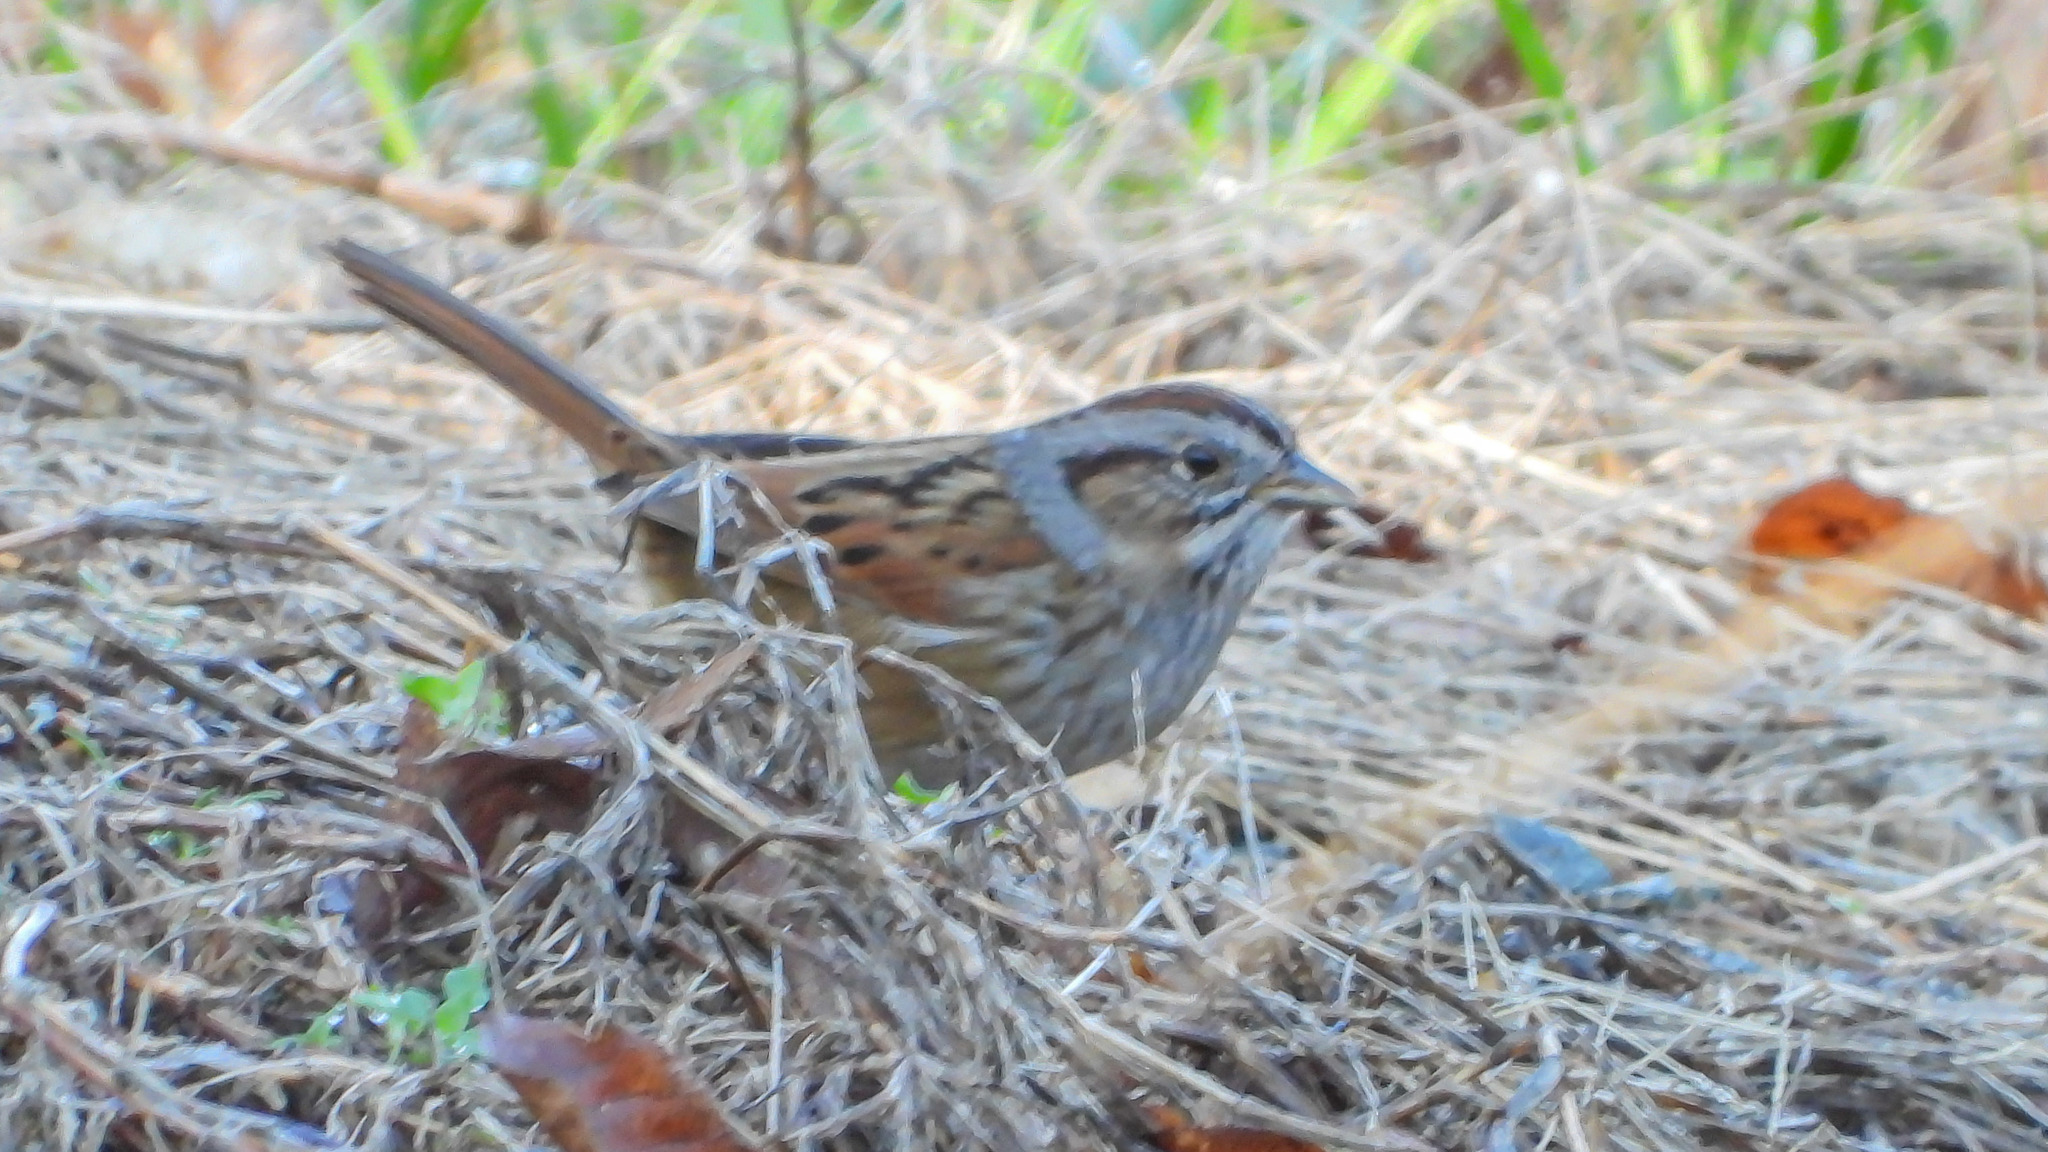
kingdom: Animalia
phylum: Chordata
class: Aves
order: Passeriformes
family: Passerellidae
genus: Melospiza
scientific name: Melospiza georgiana
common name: Swamp sparrow
